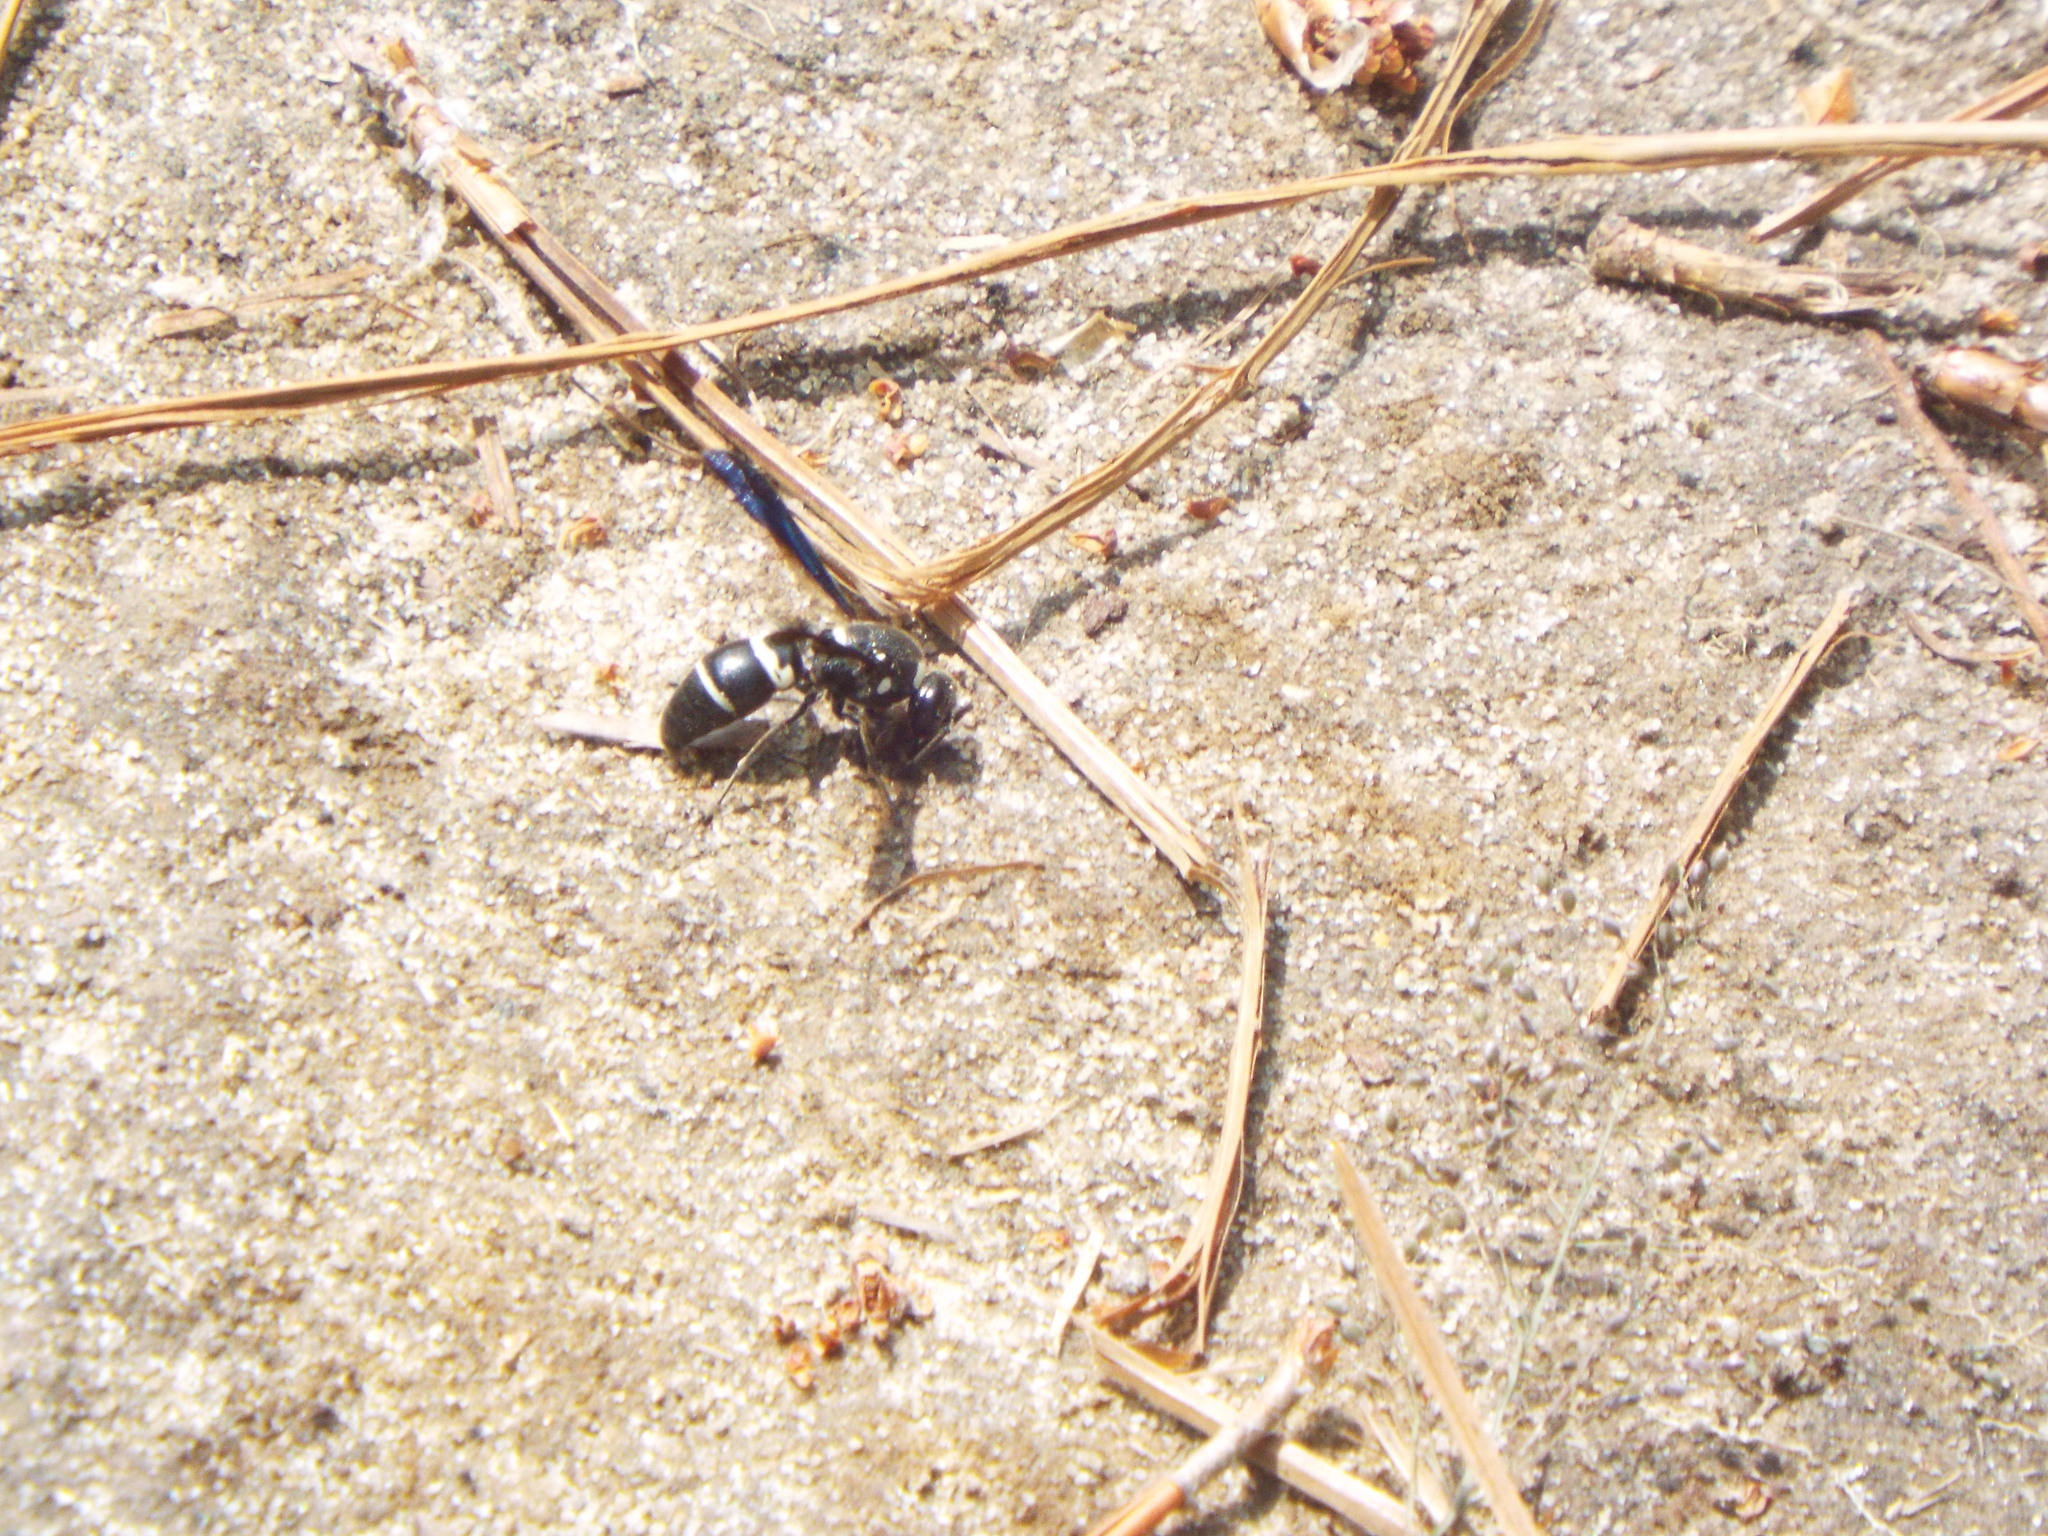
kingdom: Animalia
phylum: Arthropoda
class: Insecta
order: Hymenoptera
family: Eumenidae
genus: Euodynerus
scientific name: Euodynerus megaera
